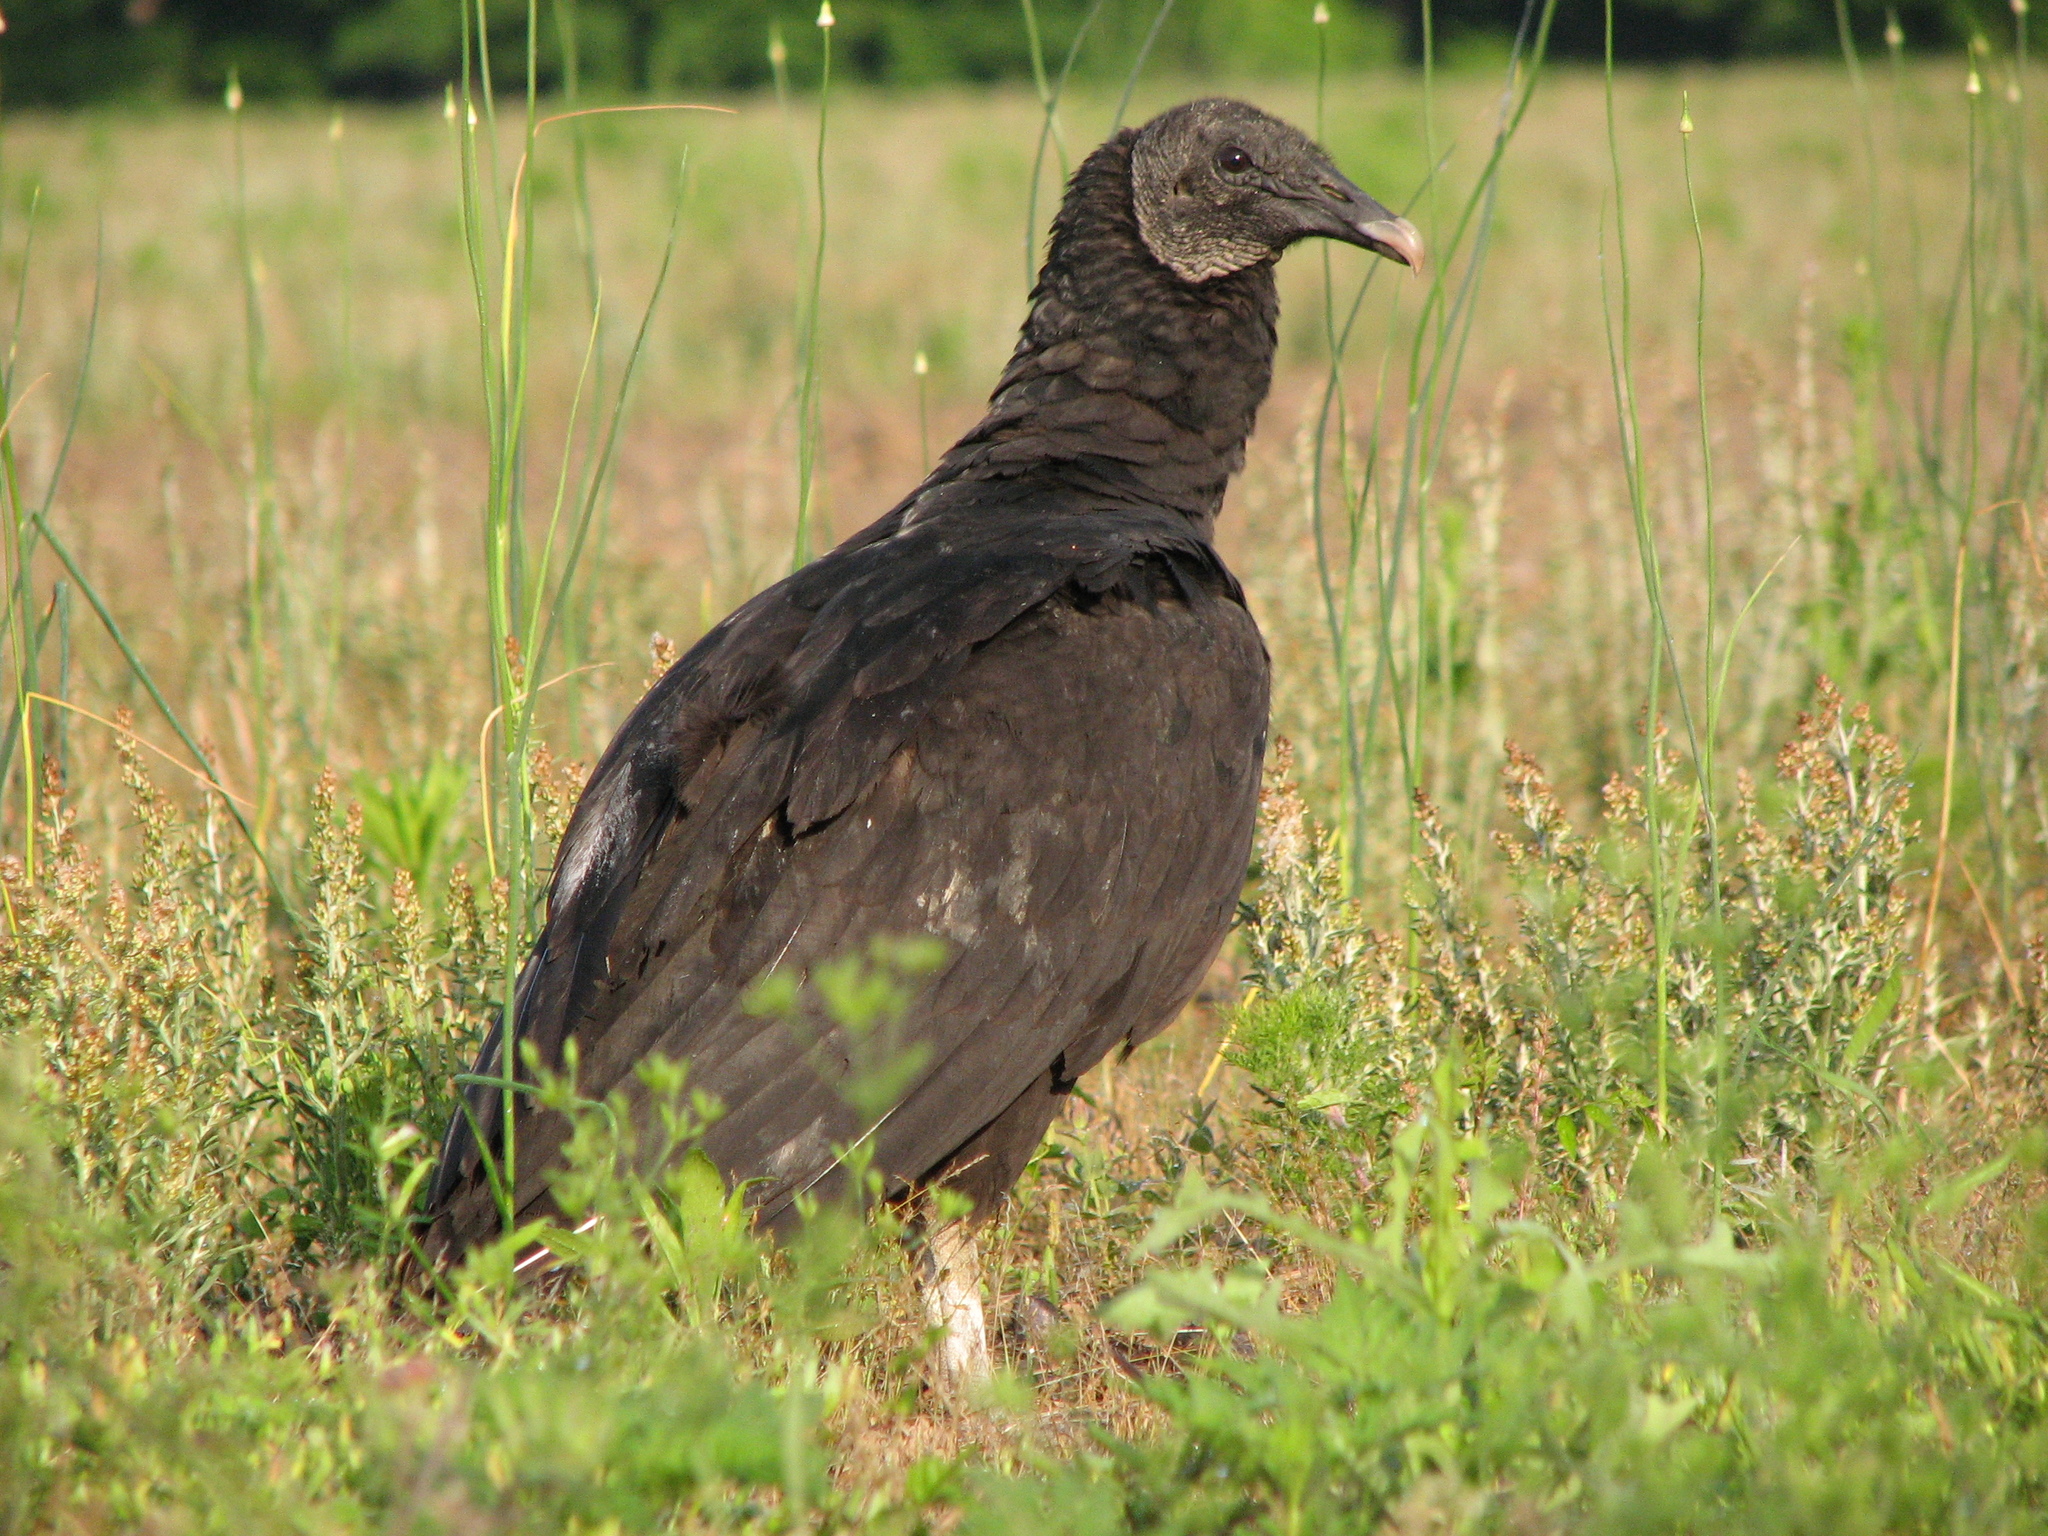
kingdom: Animalia
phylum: Chordata
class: Aves
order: Accipitriformes
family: Cathartidae
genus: Coragyps
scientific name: Coragyps atratus
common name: Black vulture
